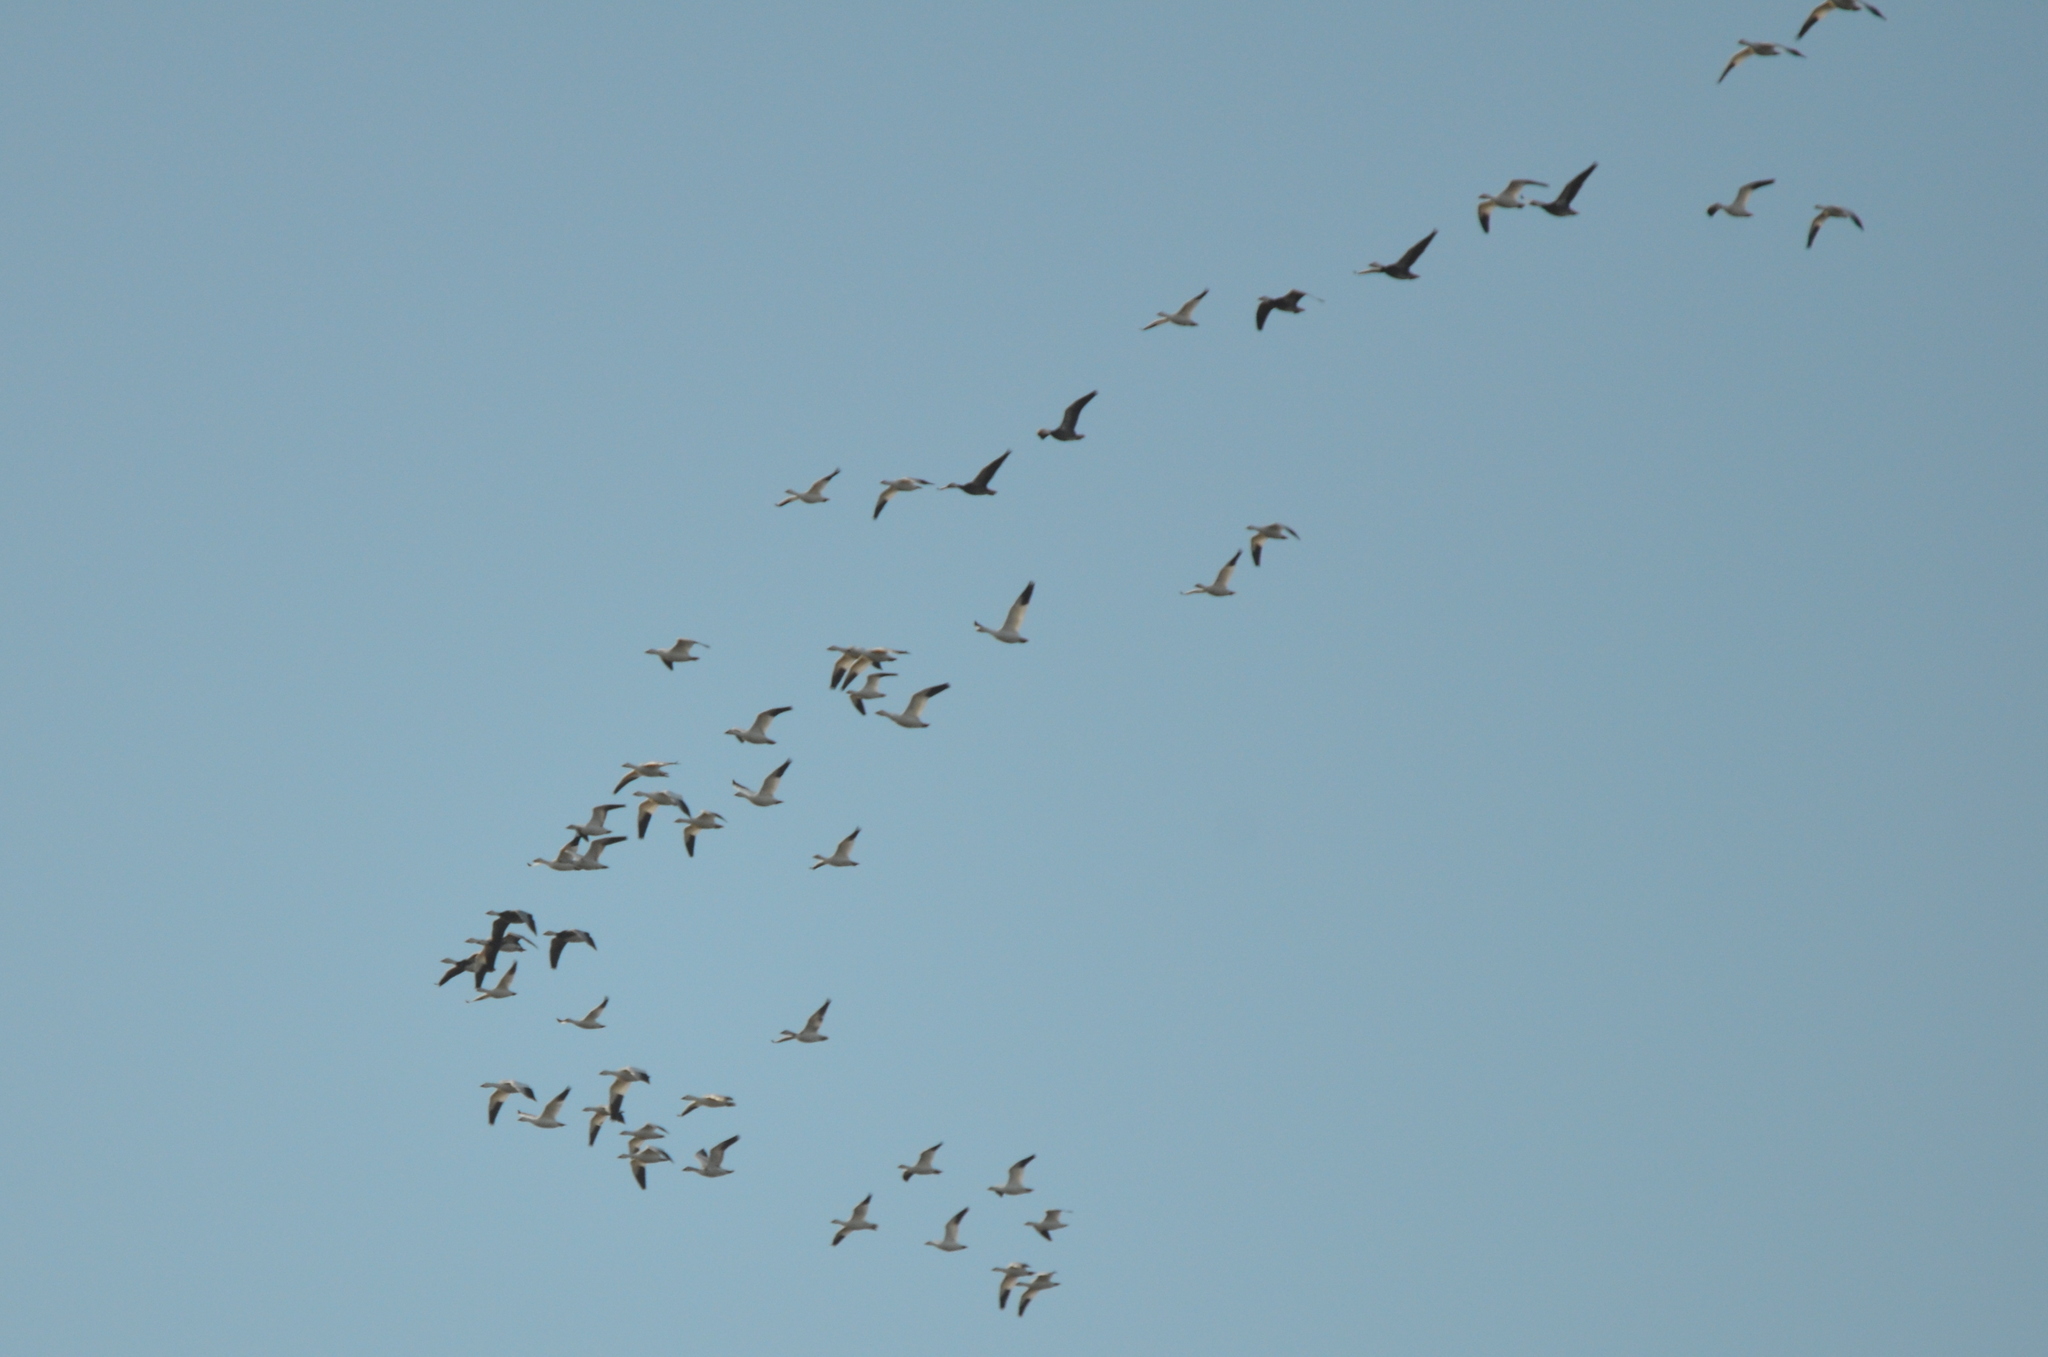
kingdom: Animalia
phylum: Chordata
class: Aves
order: Anseriformes
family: Anatidae
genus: Anser
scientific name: Anser caerulescens
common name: Snow goose
